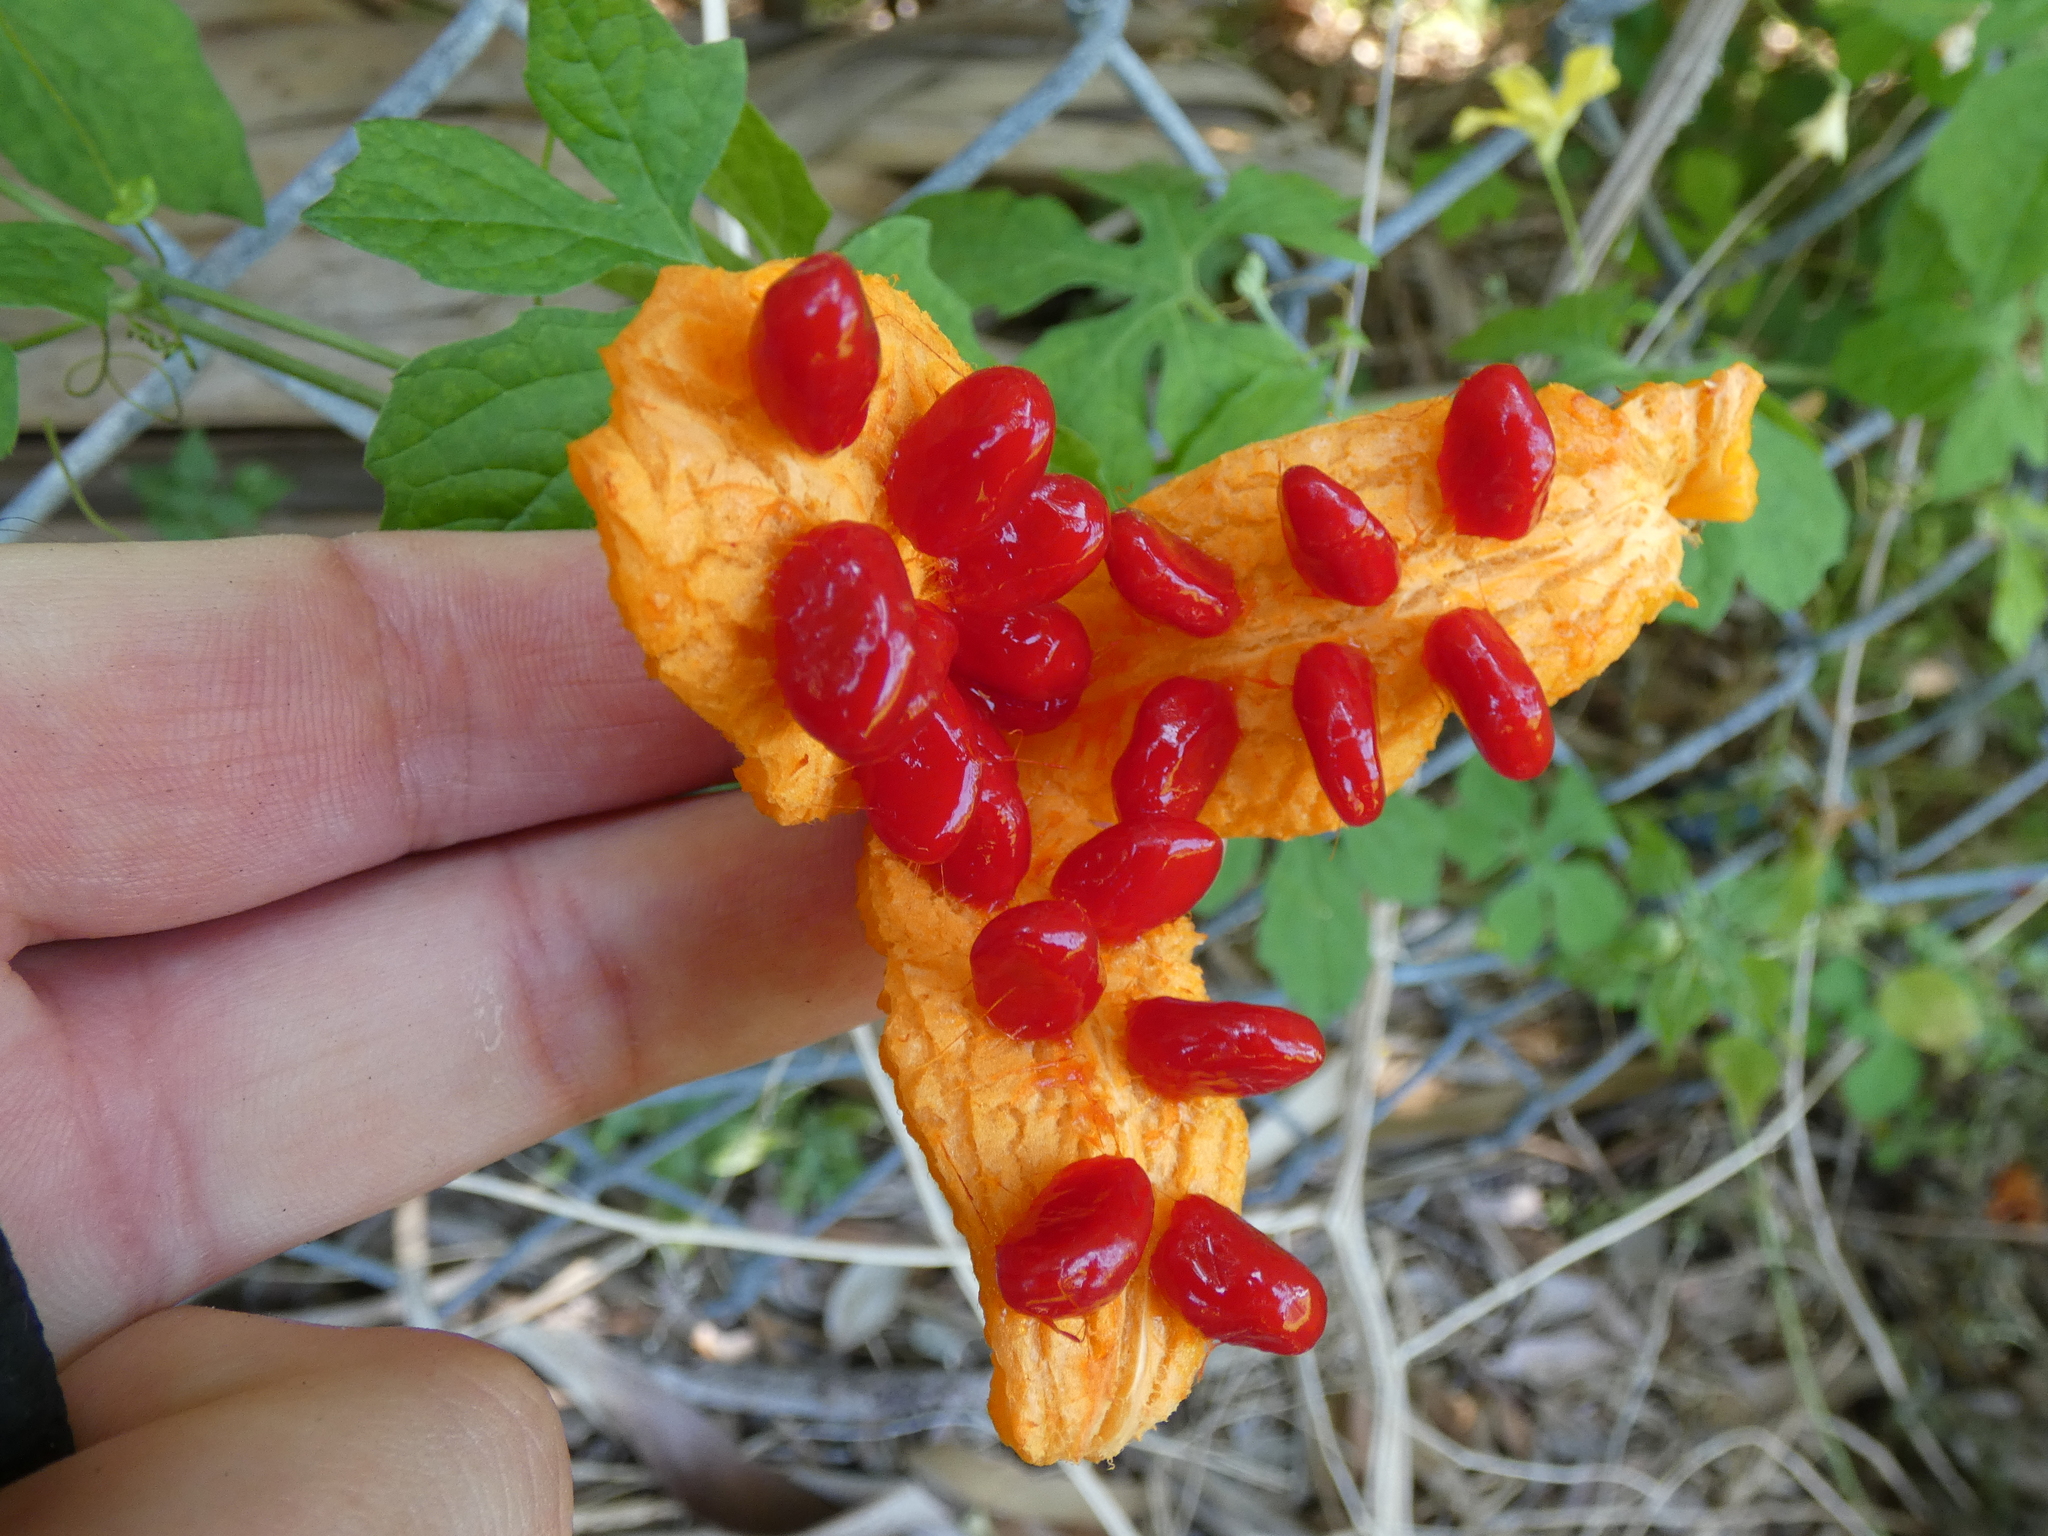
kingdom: Plantae
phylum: Tracheophyta
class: Magnoliopsida
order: Cucurbitales
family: Cucurbitaceae
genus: Momordica
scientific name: Momordica charantia
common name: Balsampear
